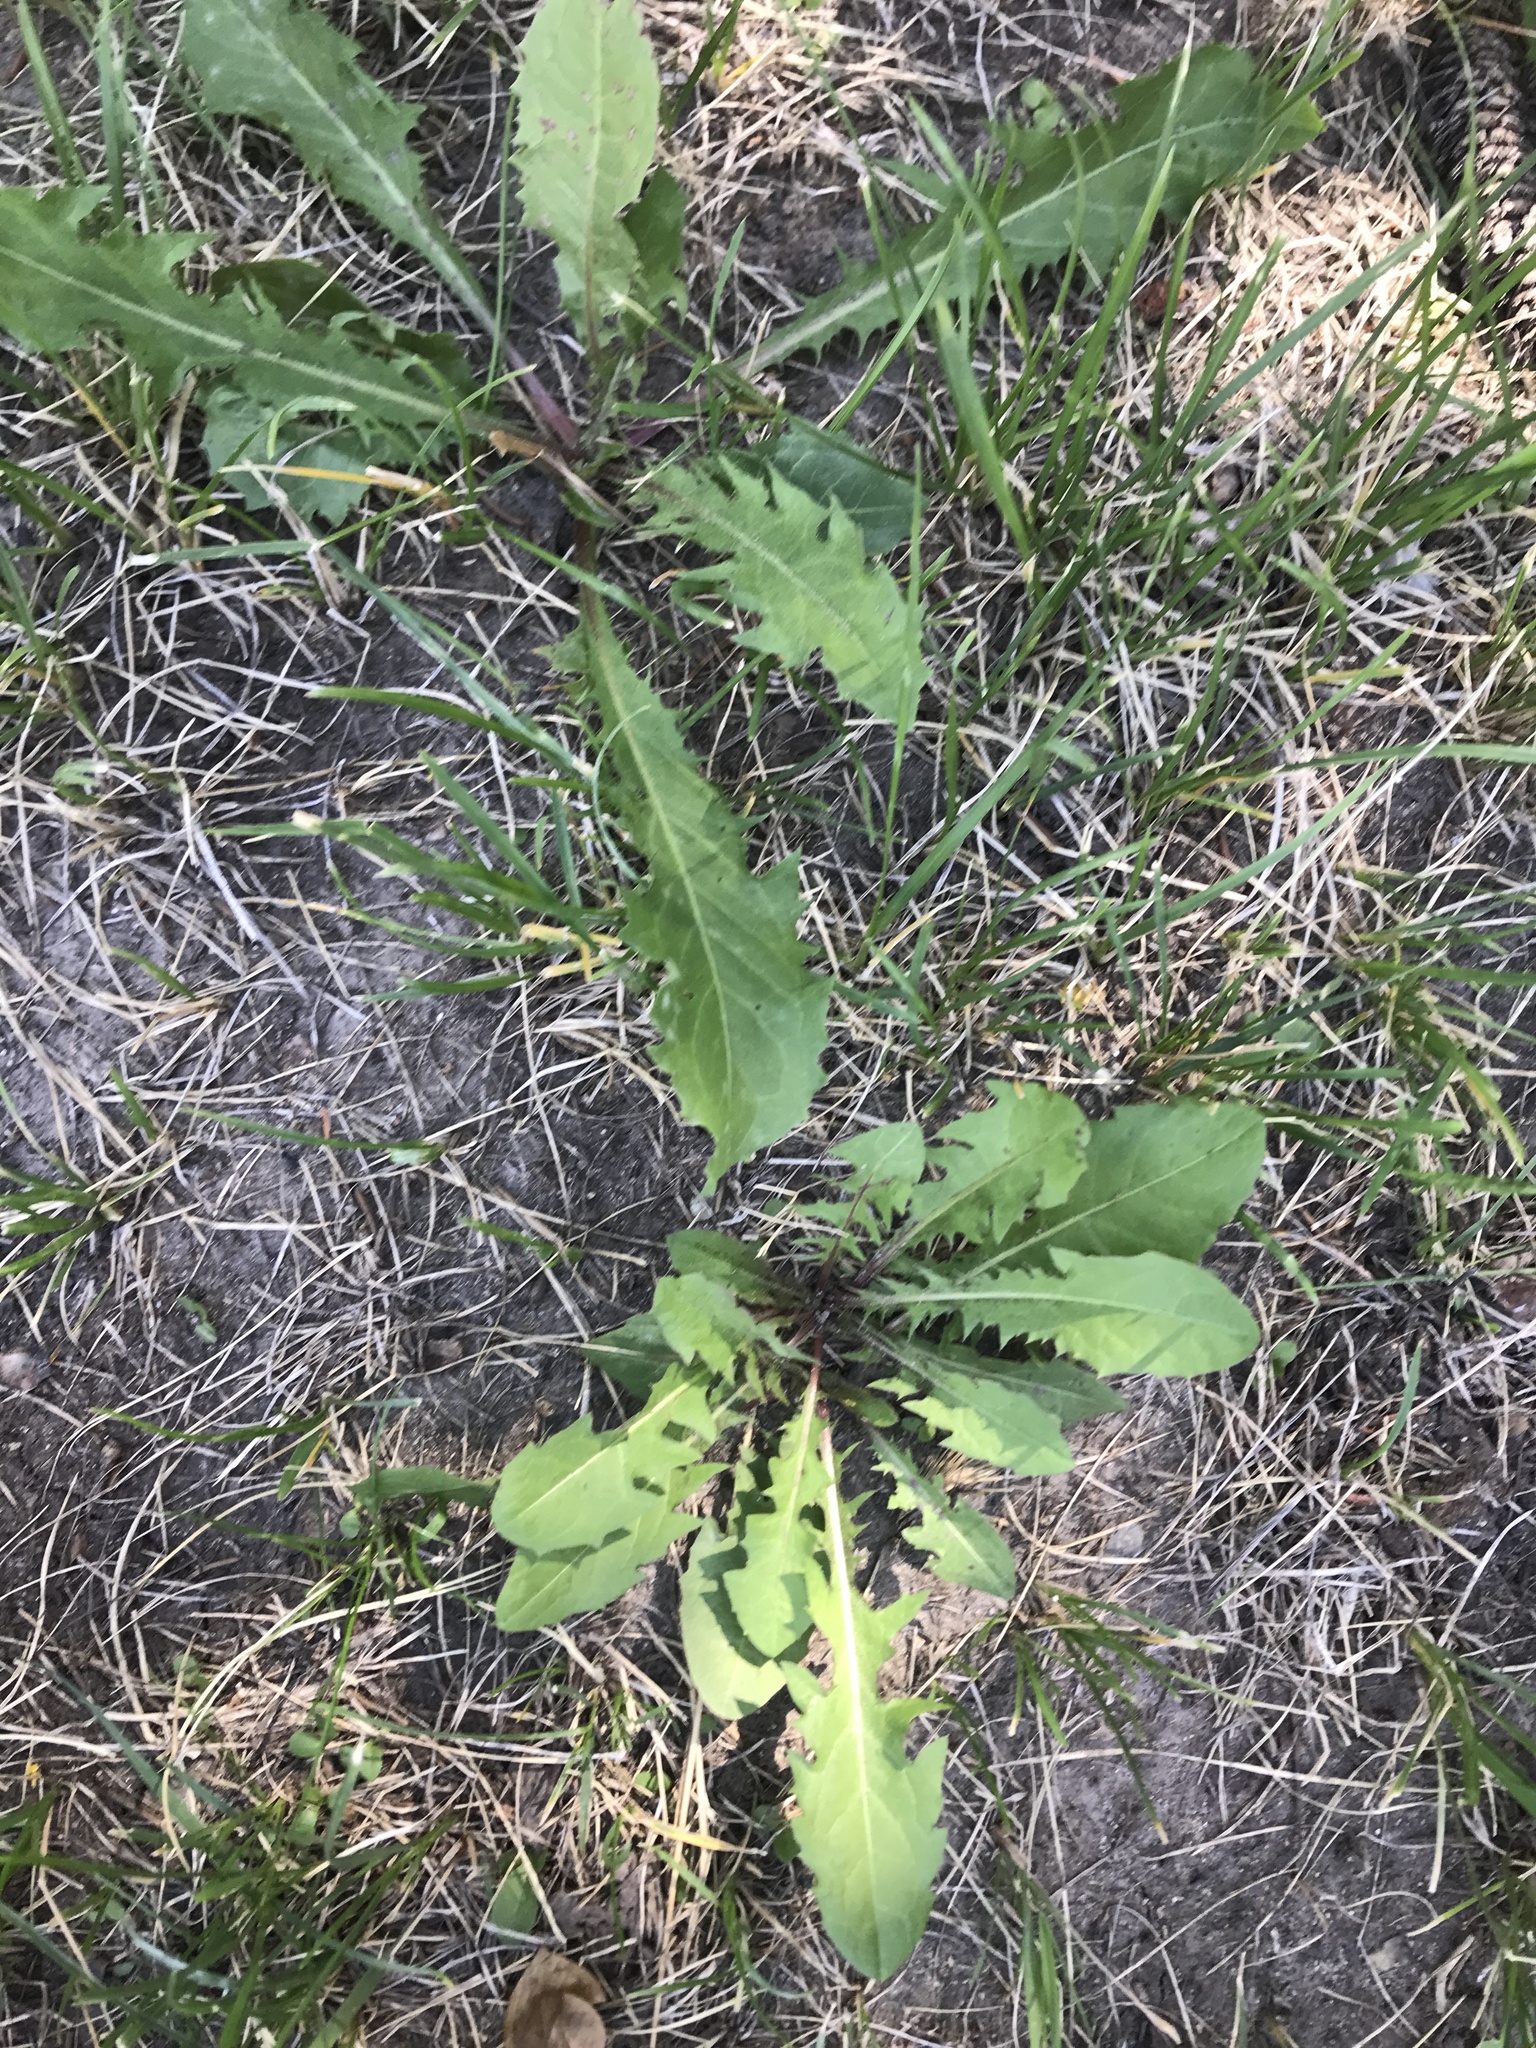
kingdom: Plantae
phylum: Tracheophyta
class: Magnoliopsida
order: Asterales
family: Asteraceae
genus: Taraxacum
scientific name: Taraxacum officinale
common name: Common dandelion
